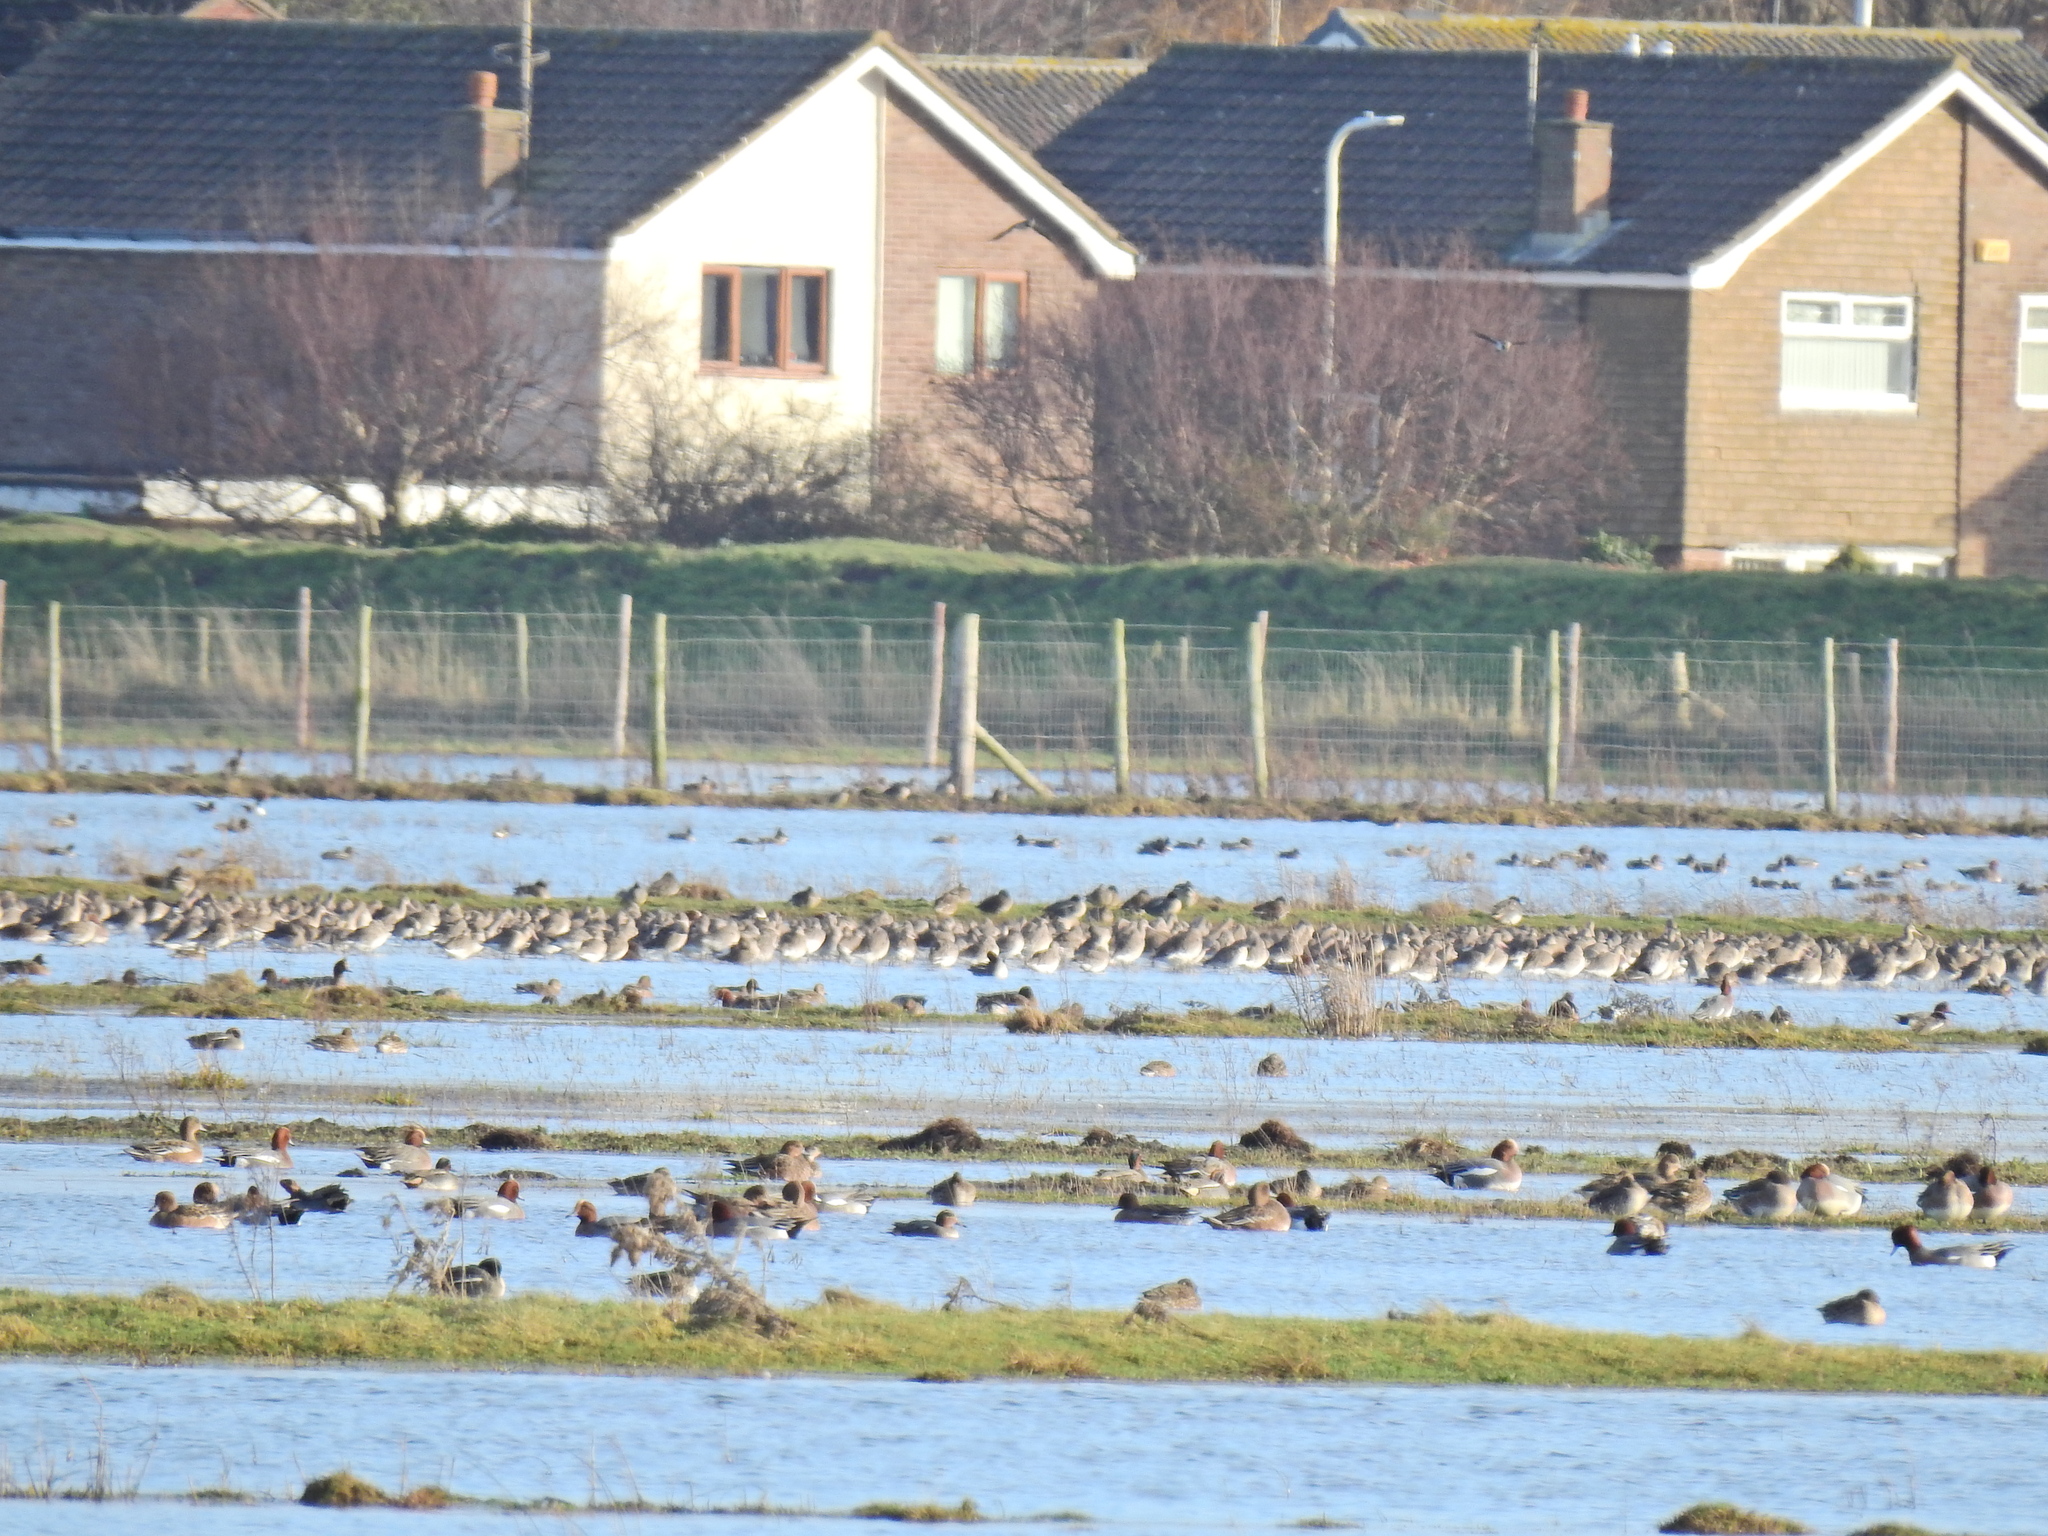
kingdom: Animalia
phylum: Chordata
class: Aves
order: Charadriiformes
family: Scolopacidae
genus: Limosa
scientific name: Limosa limosa
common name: Black-tailed godwit
